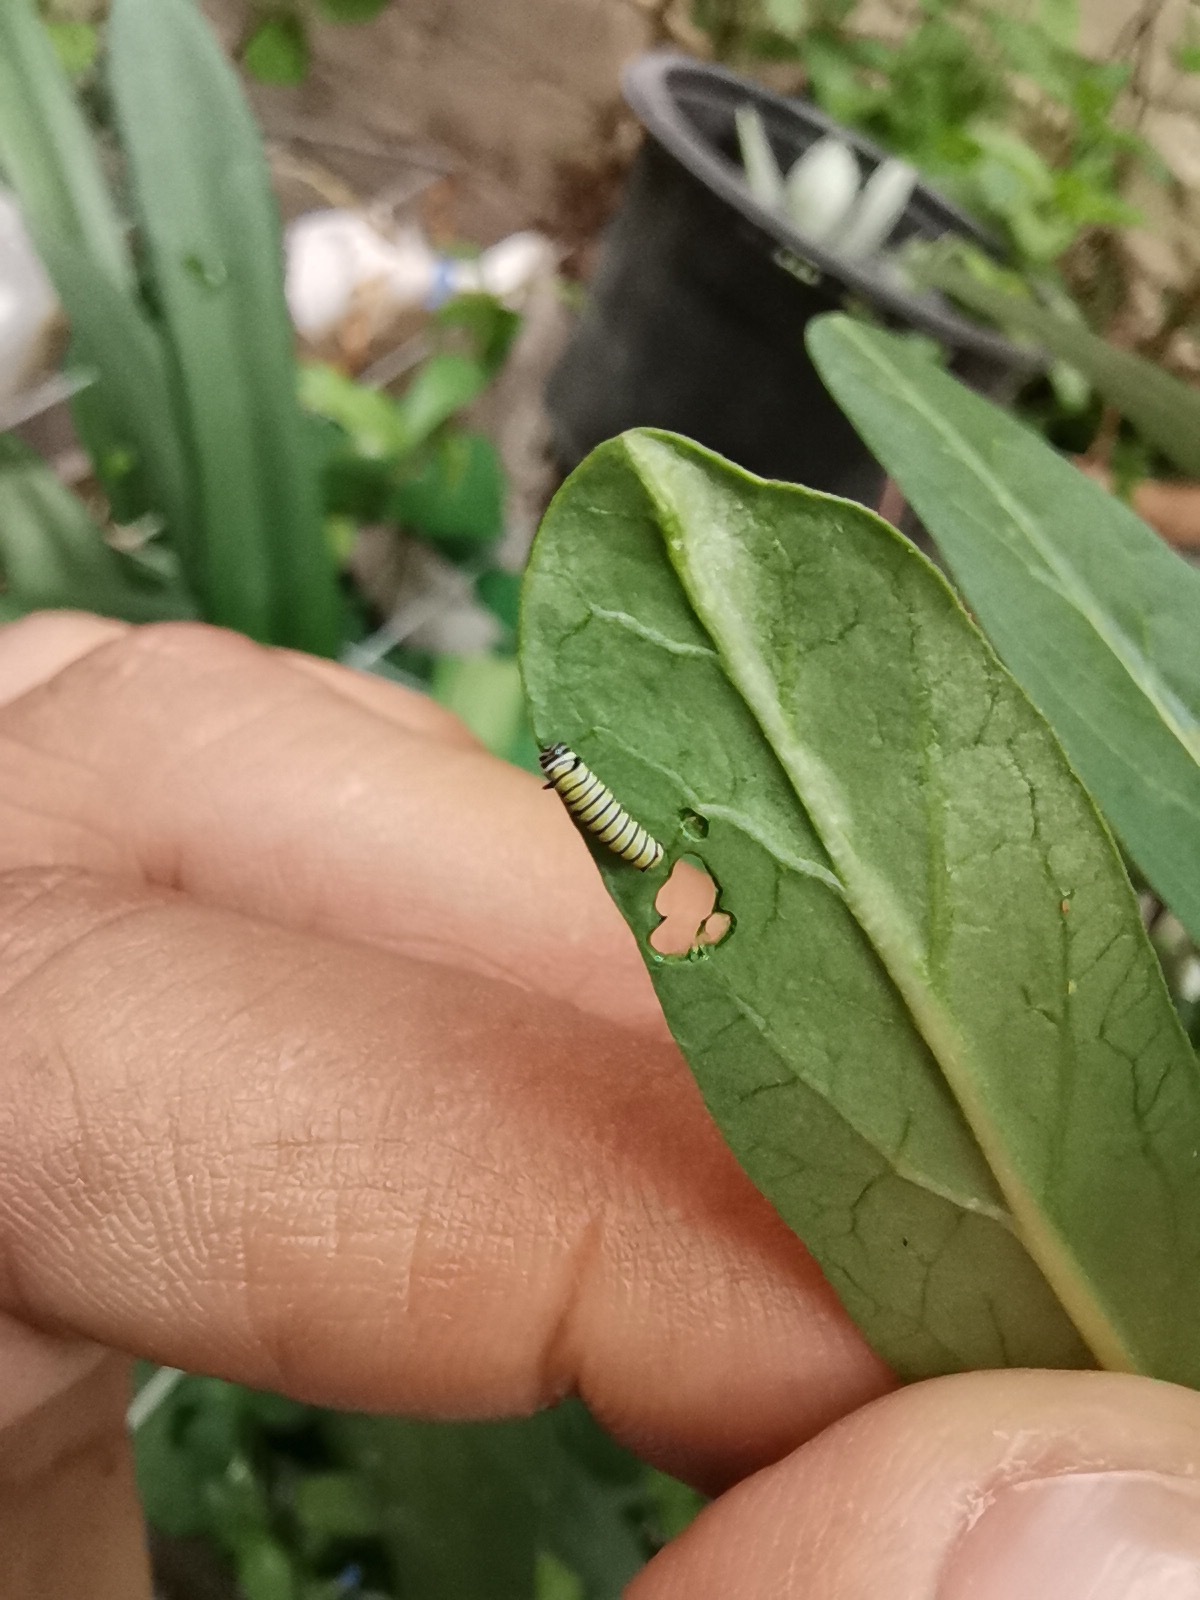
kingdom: Animalia
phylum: Arthropoda
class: Insecta
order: Lepidoptera
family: Nymphalidae
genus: Danaus
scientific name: Danaus plexippus
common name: Monarch
